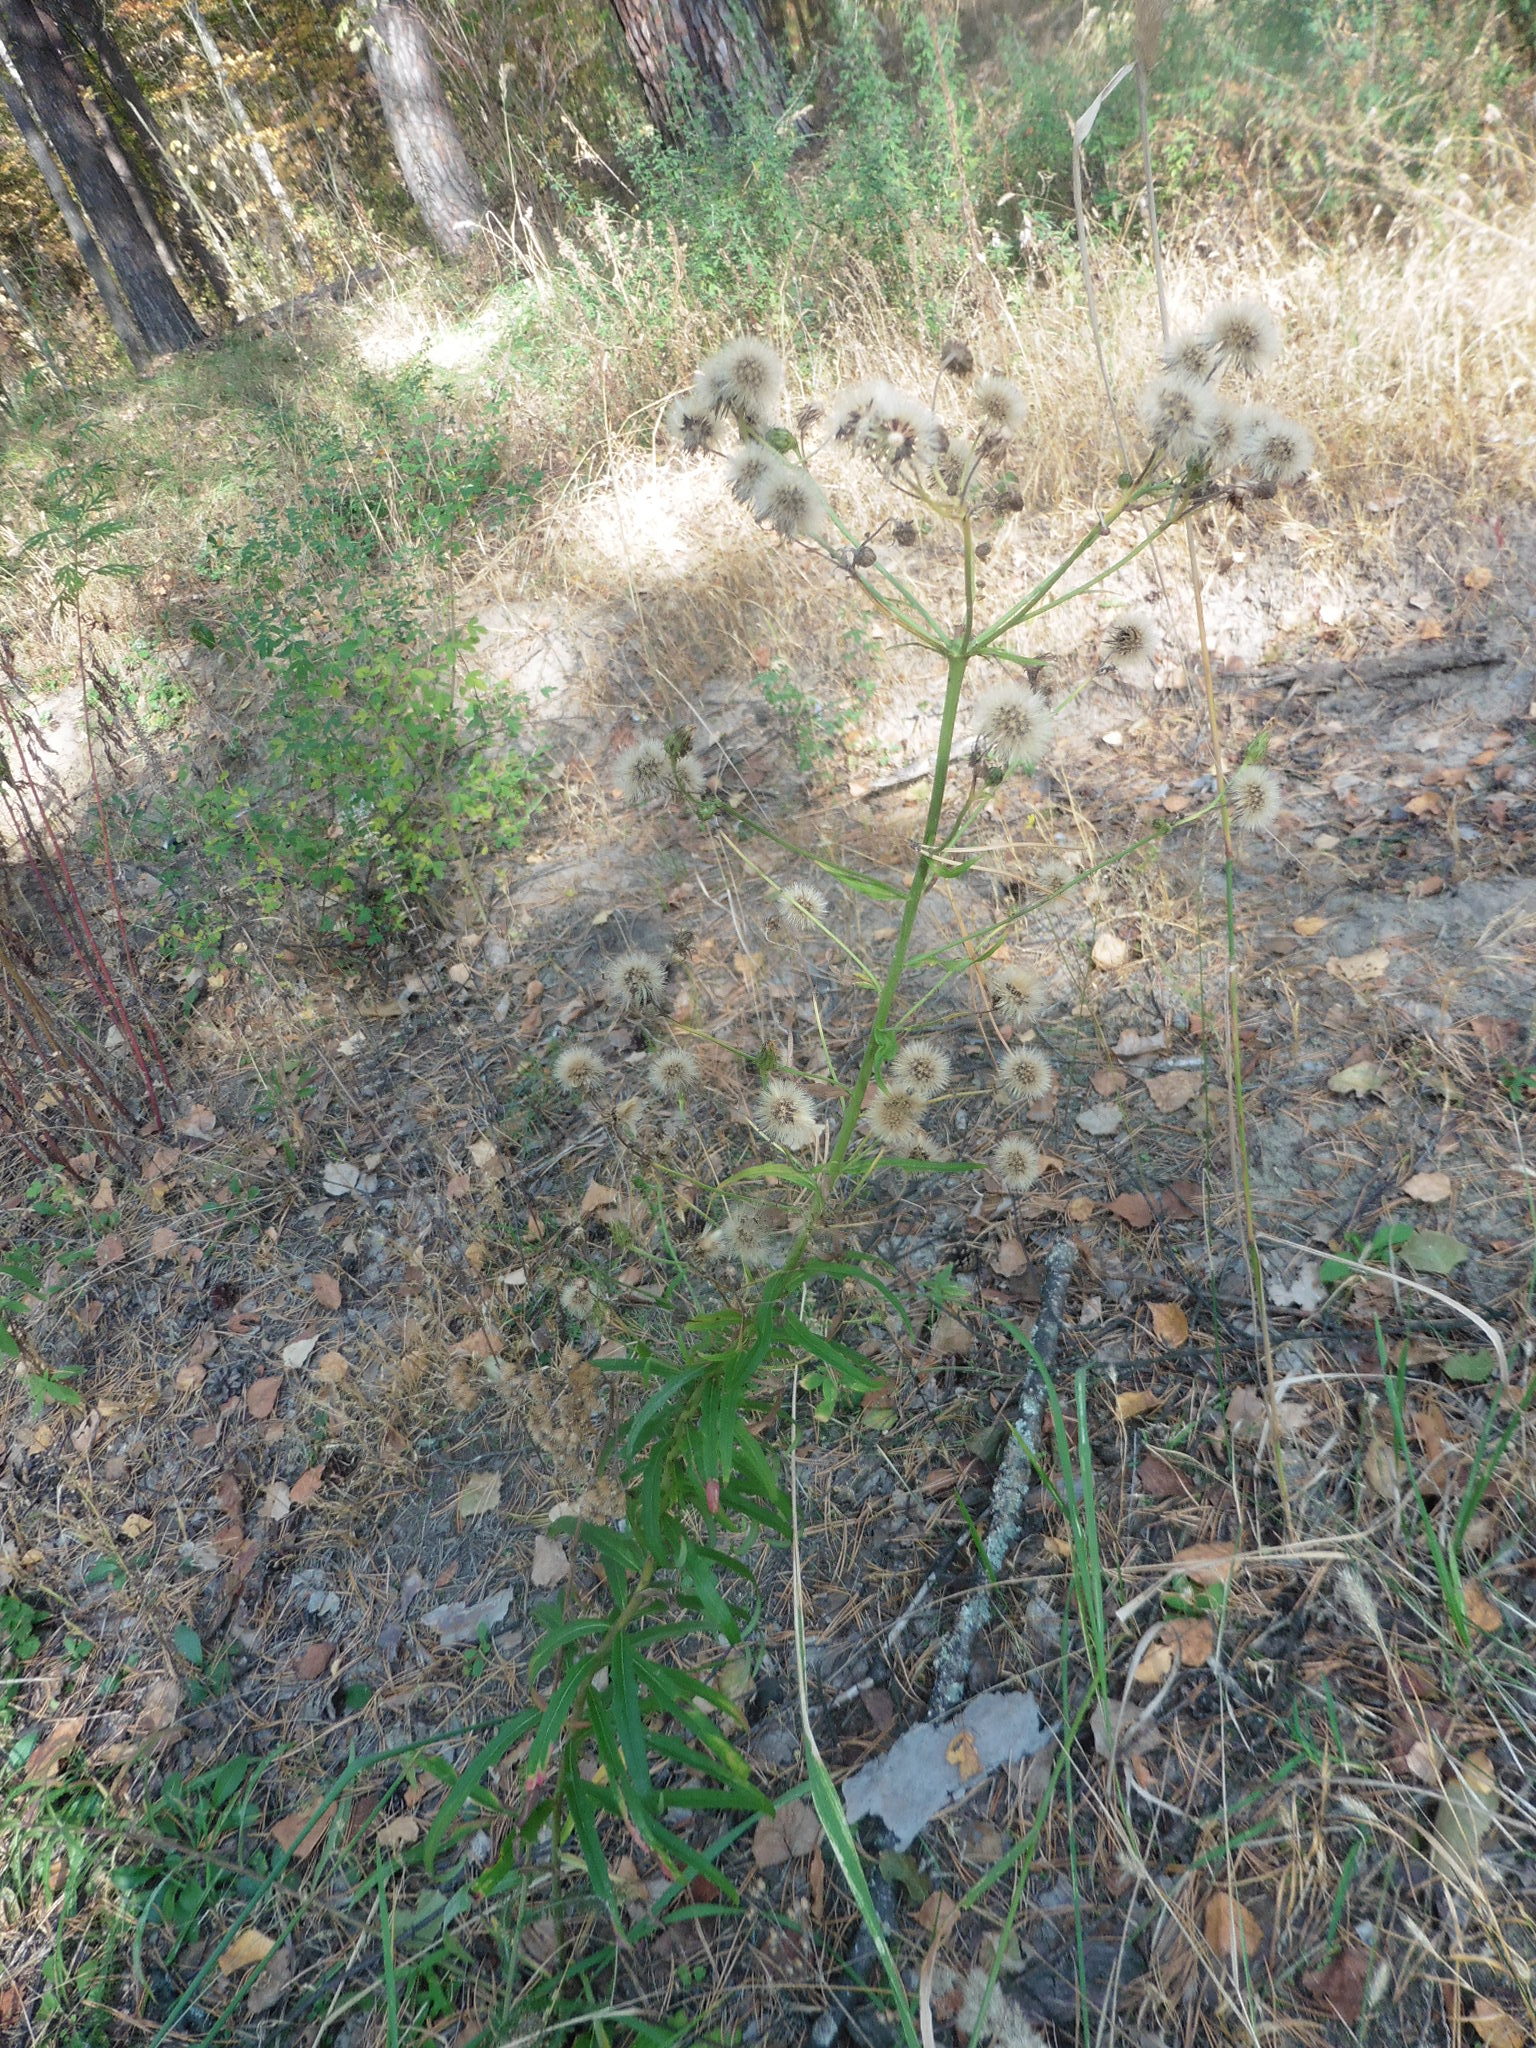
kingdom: Plantae
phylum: Tracheophyta
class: Magnoliopsida
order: Asterales
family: Asteraceae
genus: Hieracium
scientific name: Hieracium umbellatum
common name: Northern hawkweed
